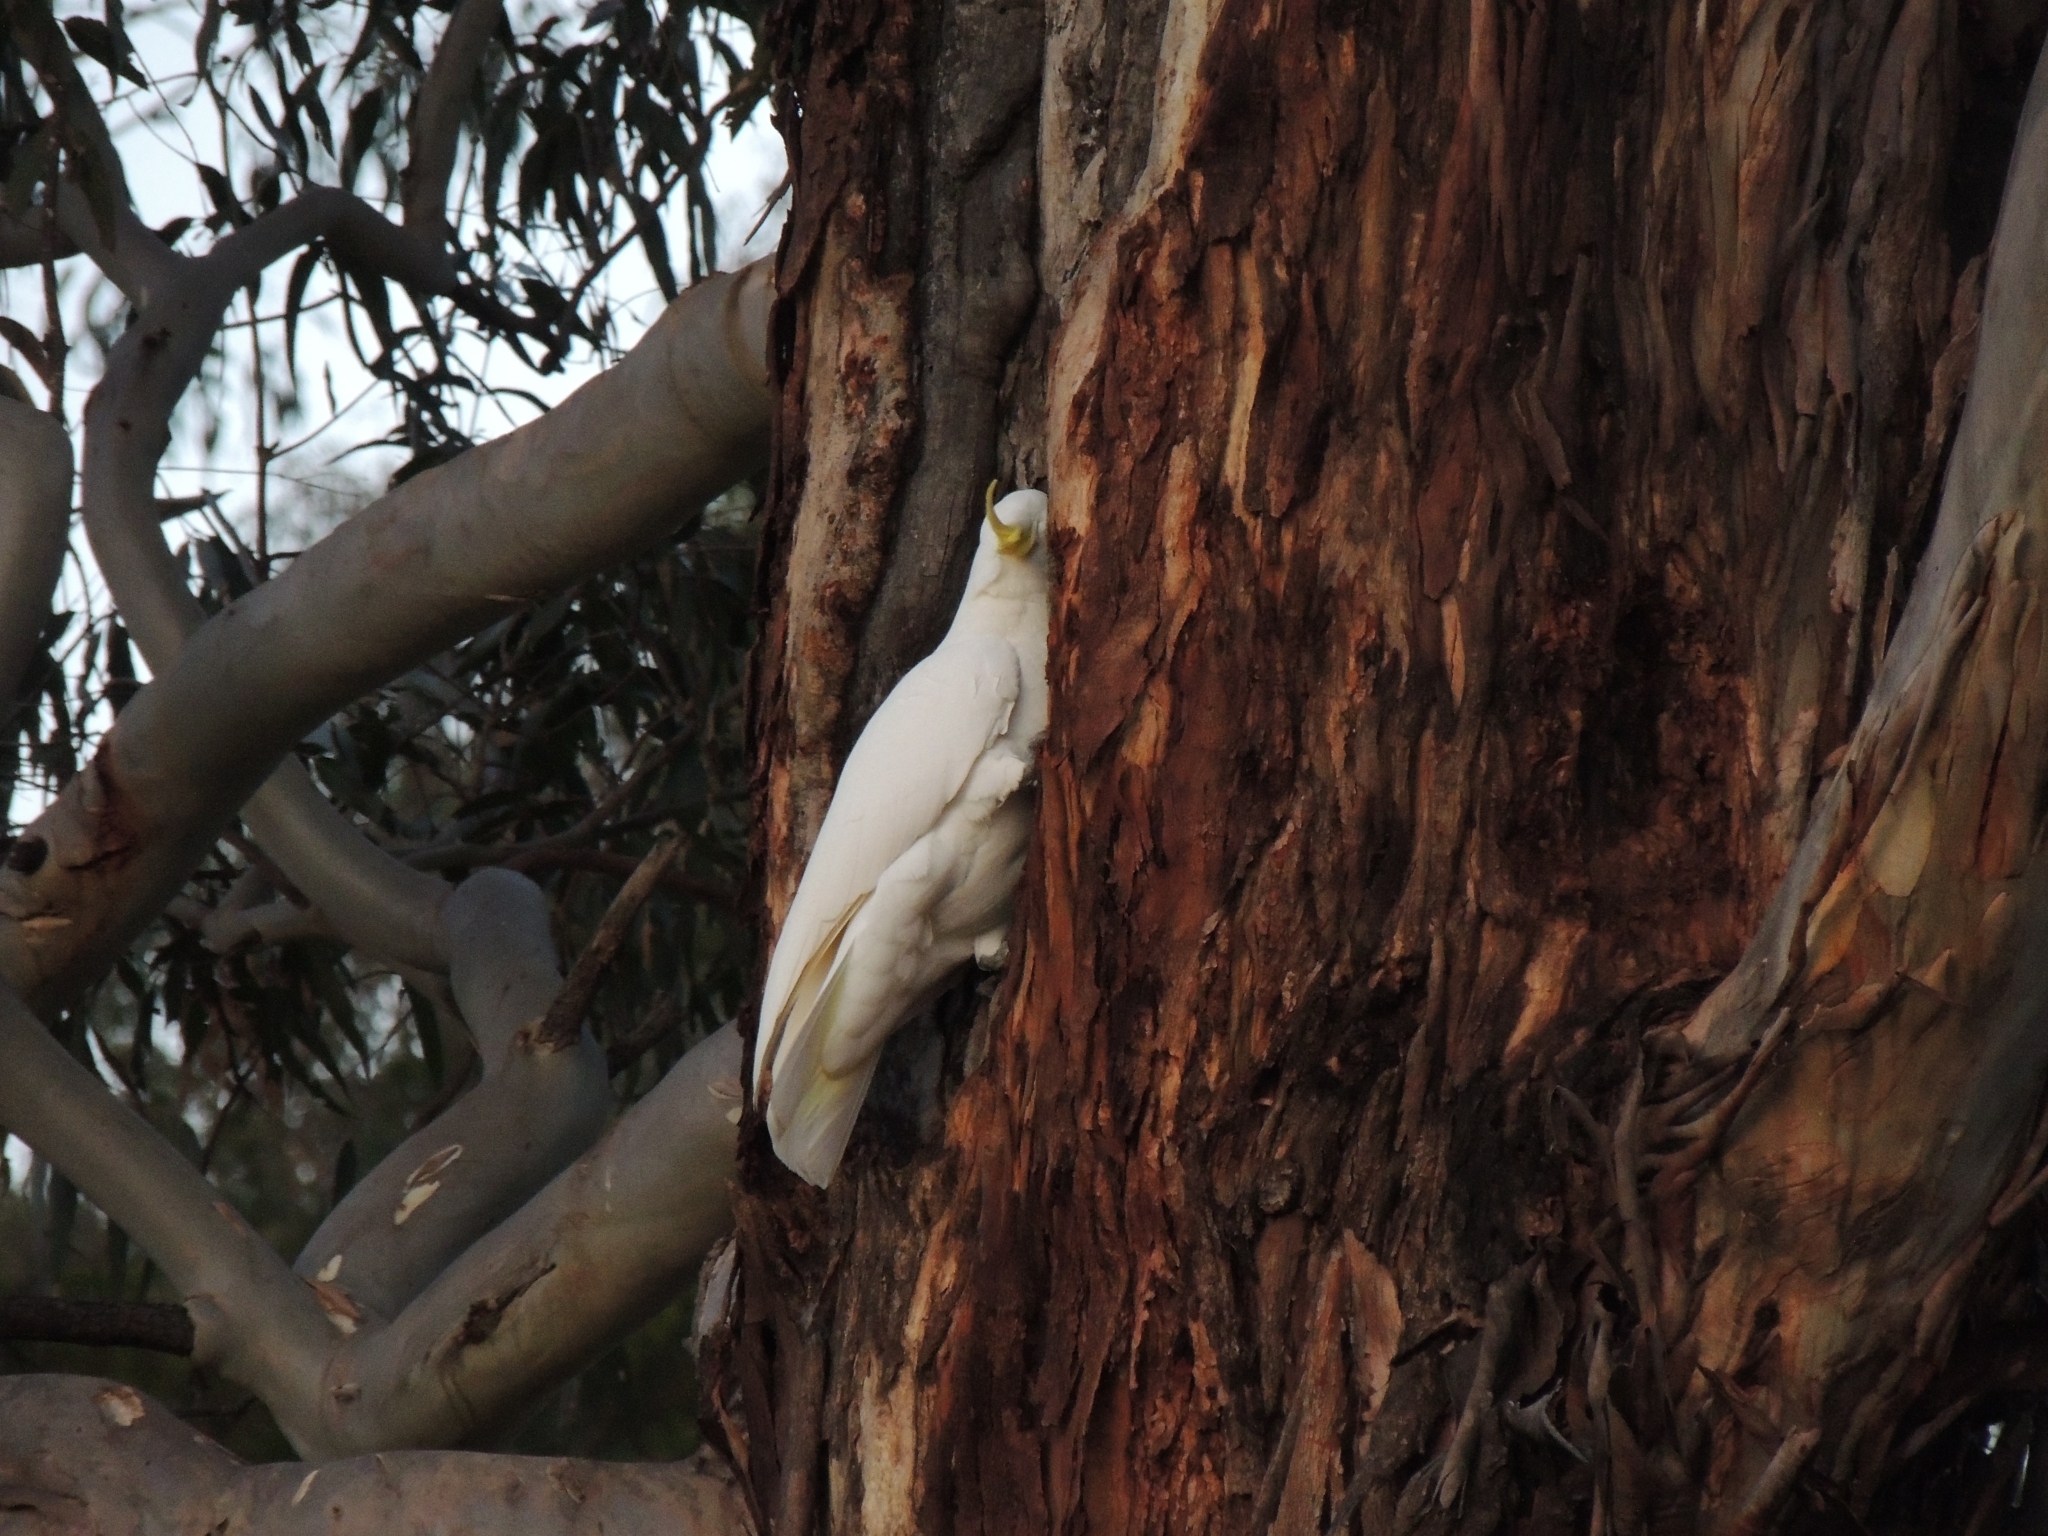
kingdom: Animalia
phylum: Chordata
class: Aves
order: Psittaciformes
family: Psittacidae
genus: Cacatua
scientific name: Cacatua galerita
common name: Sulphur-crested cockatoo
